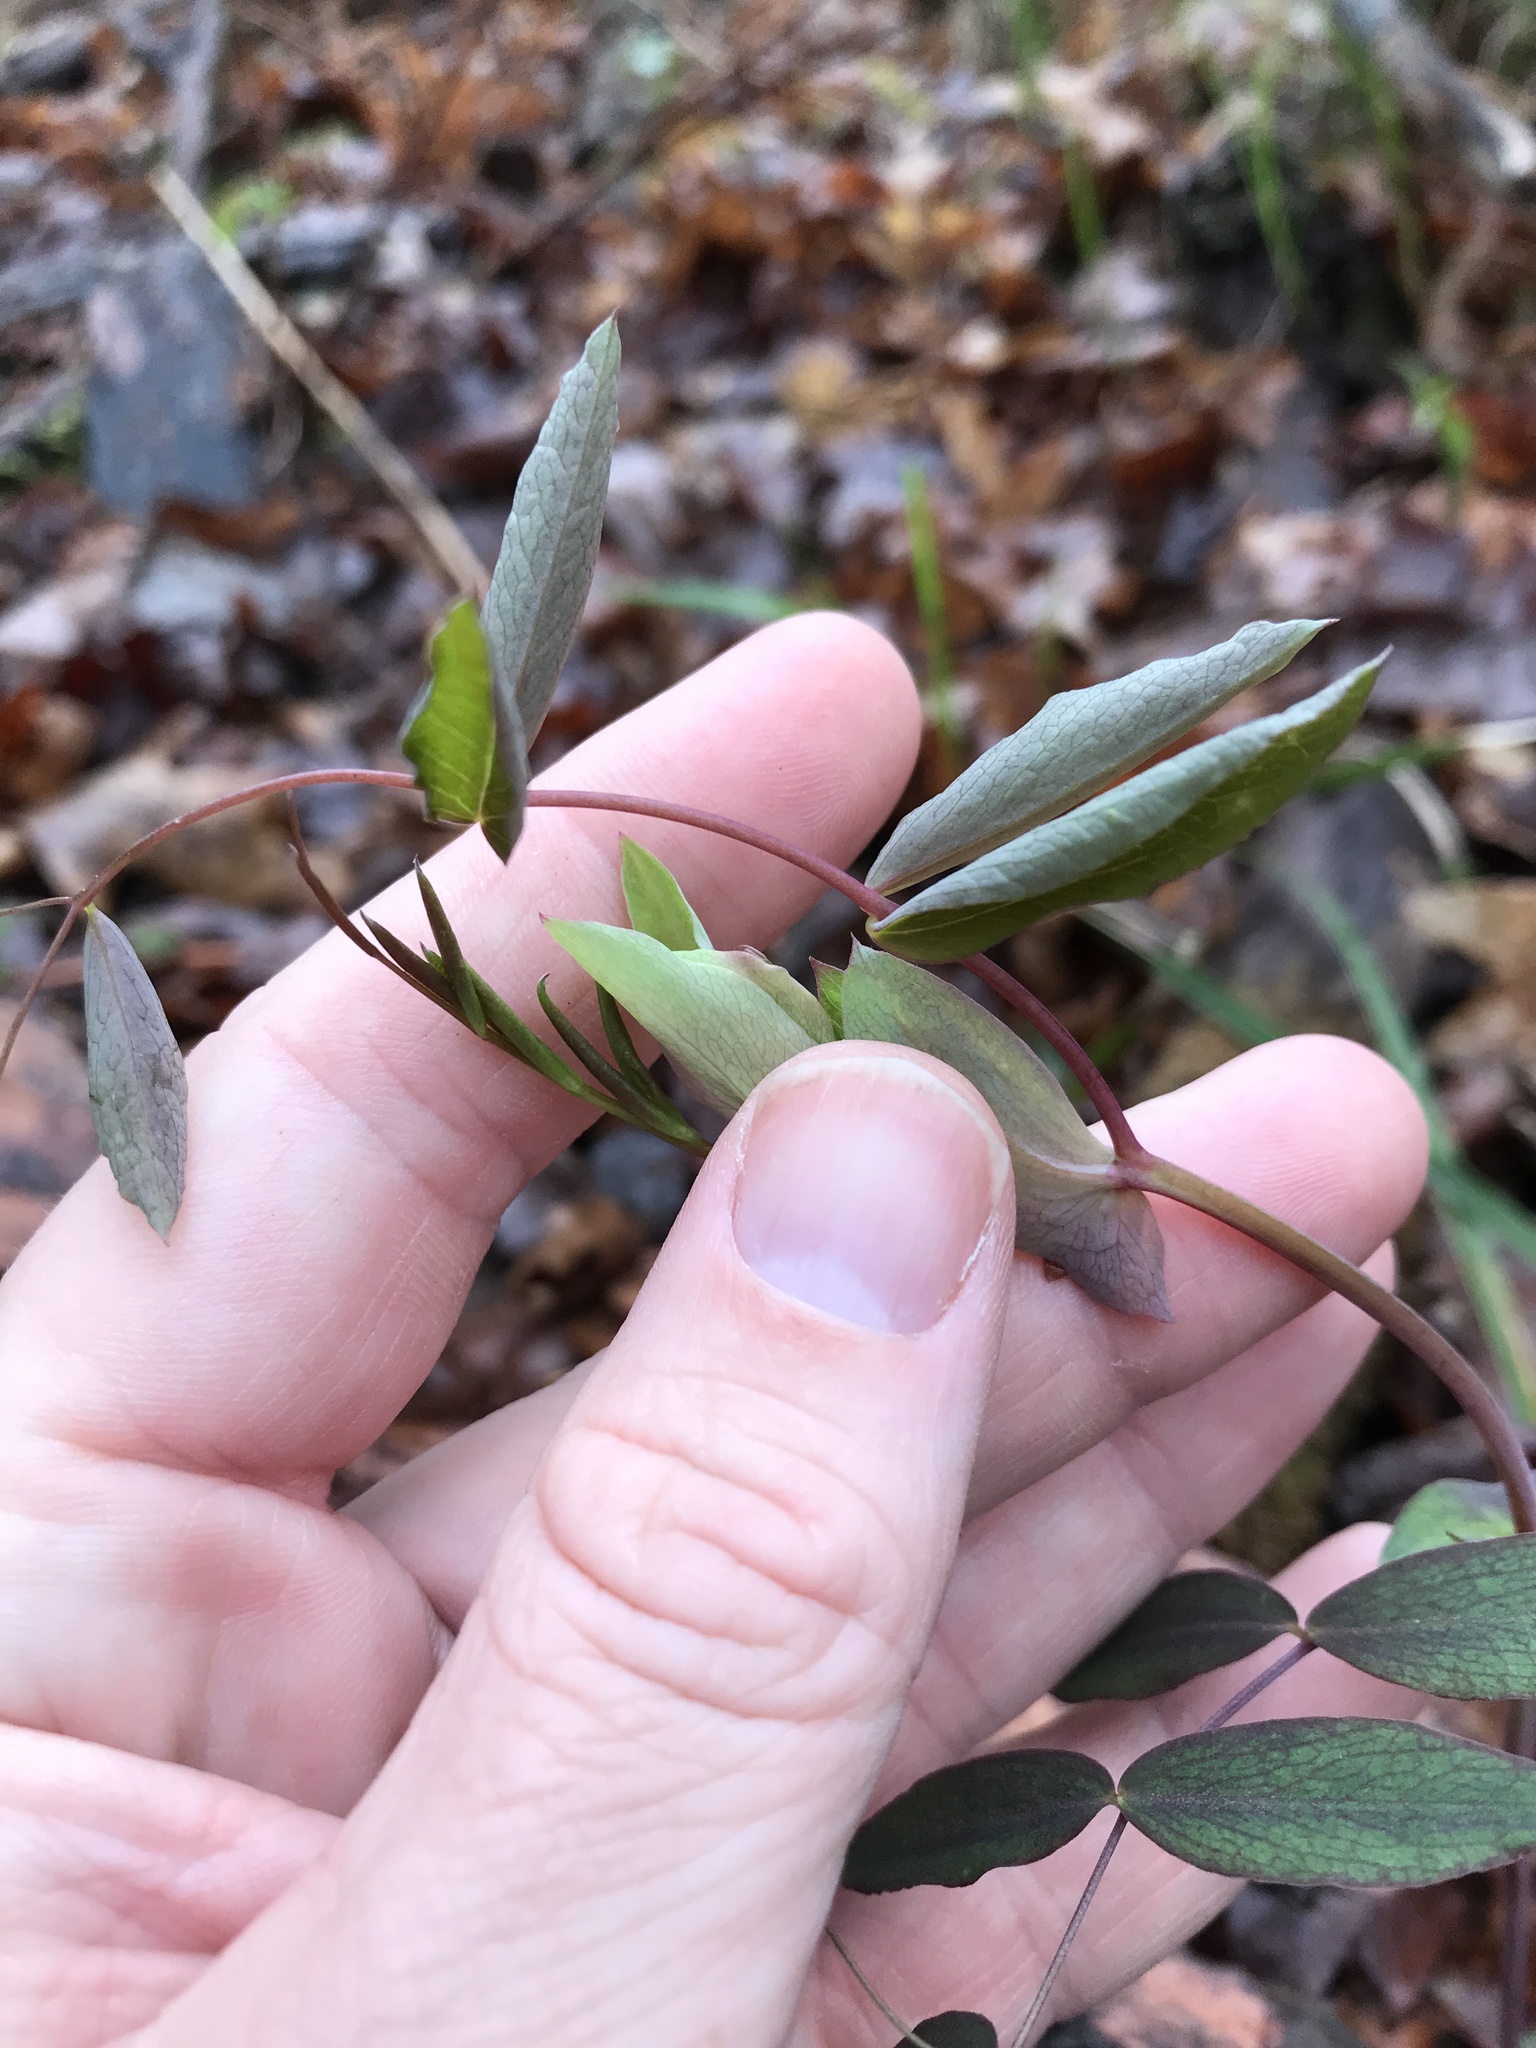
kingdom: Plantae
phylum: Tracheophyta
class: Magnoliopsida
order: Fabales
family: Fabaceae
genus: Lathyrus
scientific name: Lathyrus ochroleucus
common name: Pale vetchling
